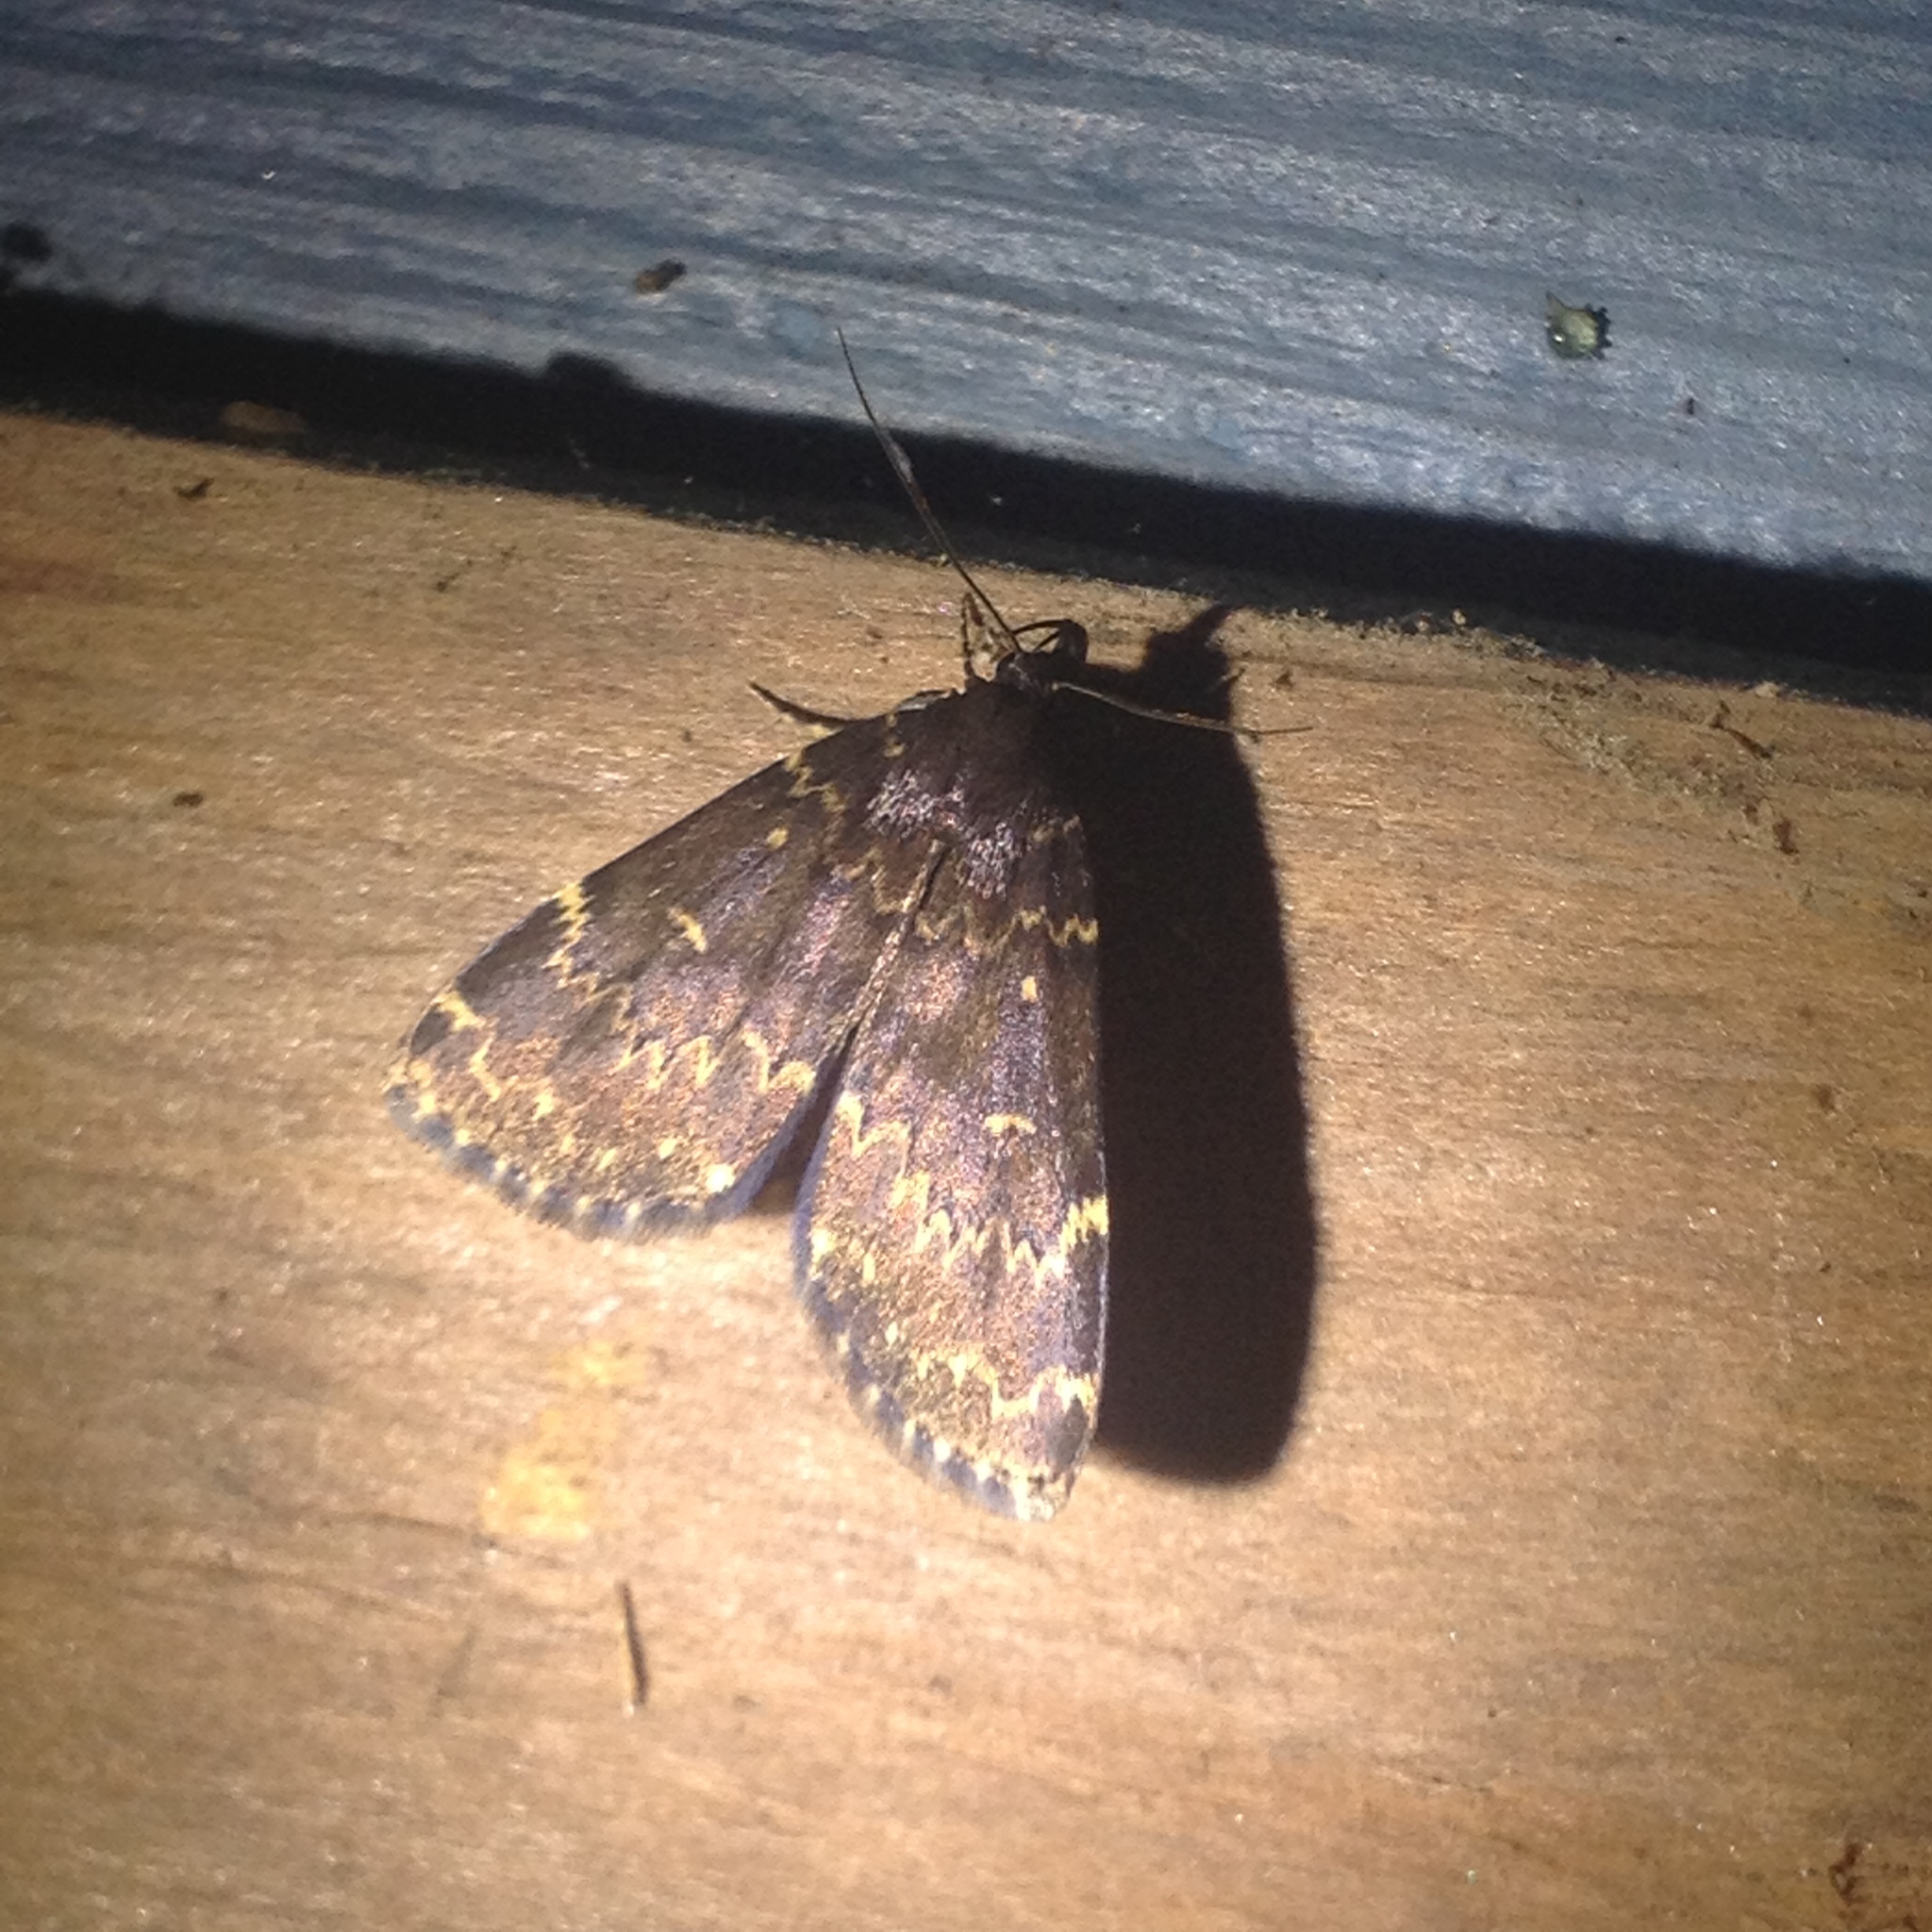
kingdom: Animalia
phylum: Arthropoda
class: Insecta
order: Lepidoptera
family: Erebidae
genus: Idia
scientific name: Idia lubricalis
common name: Twin-striped tabby
